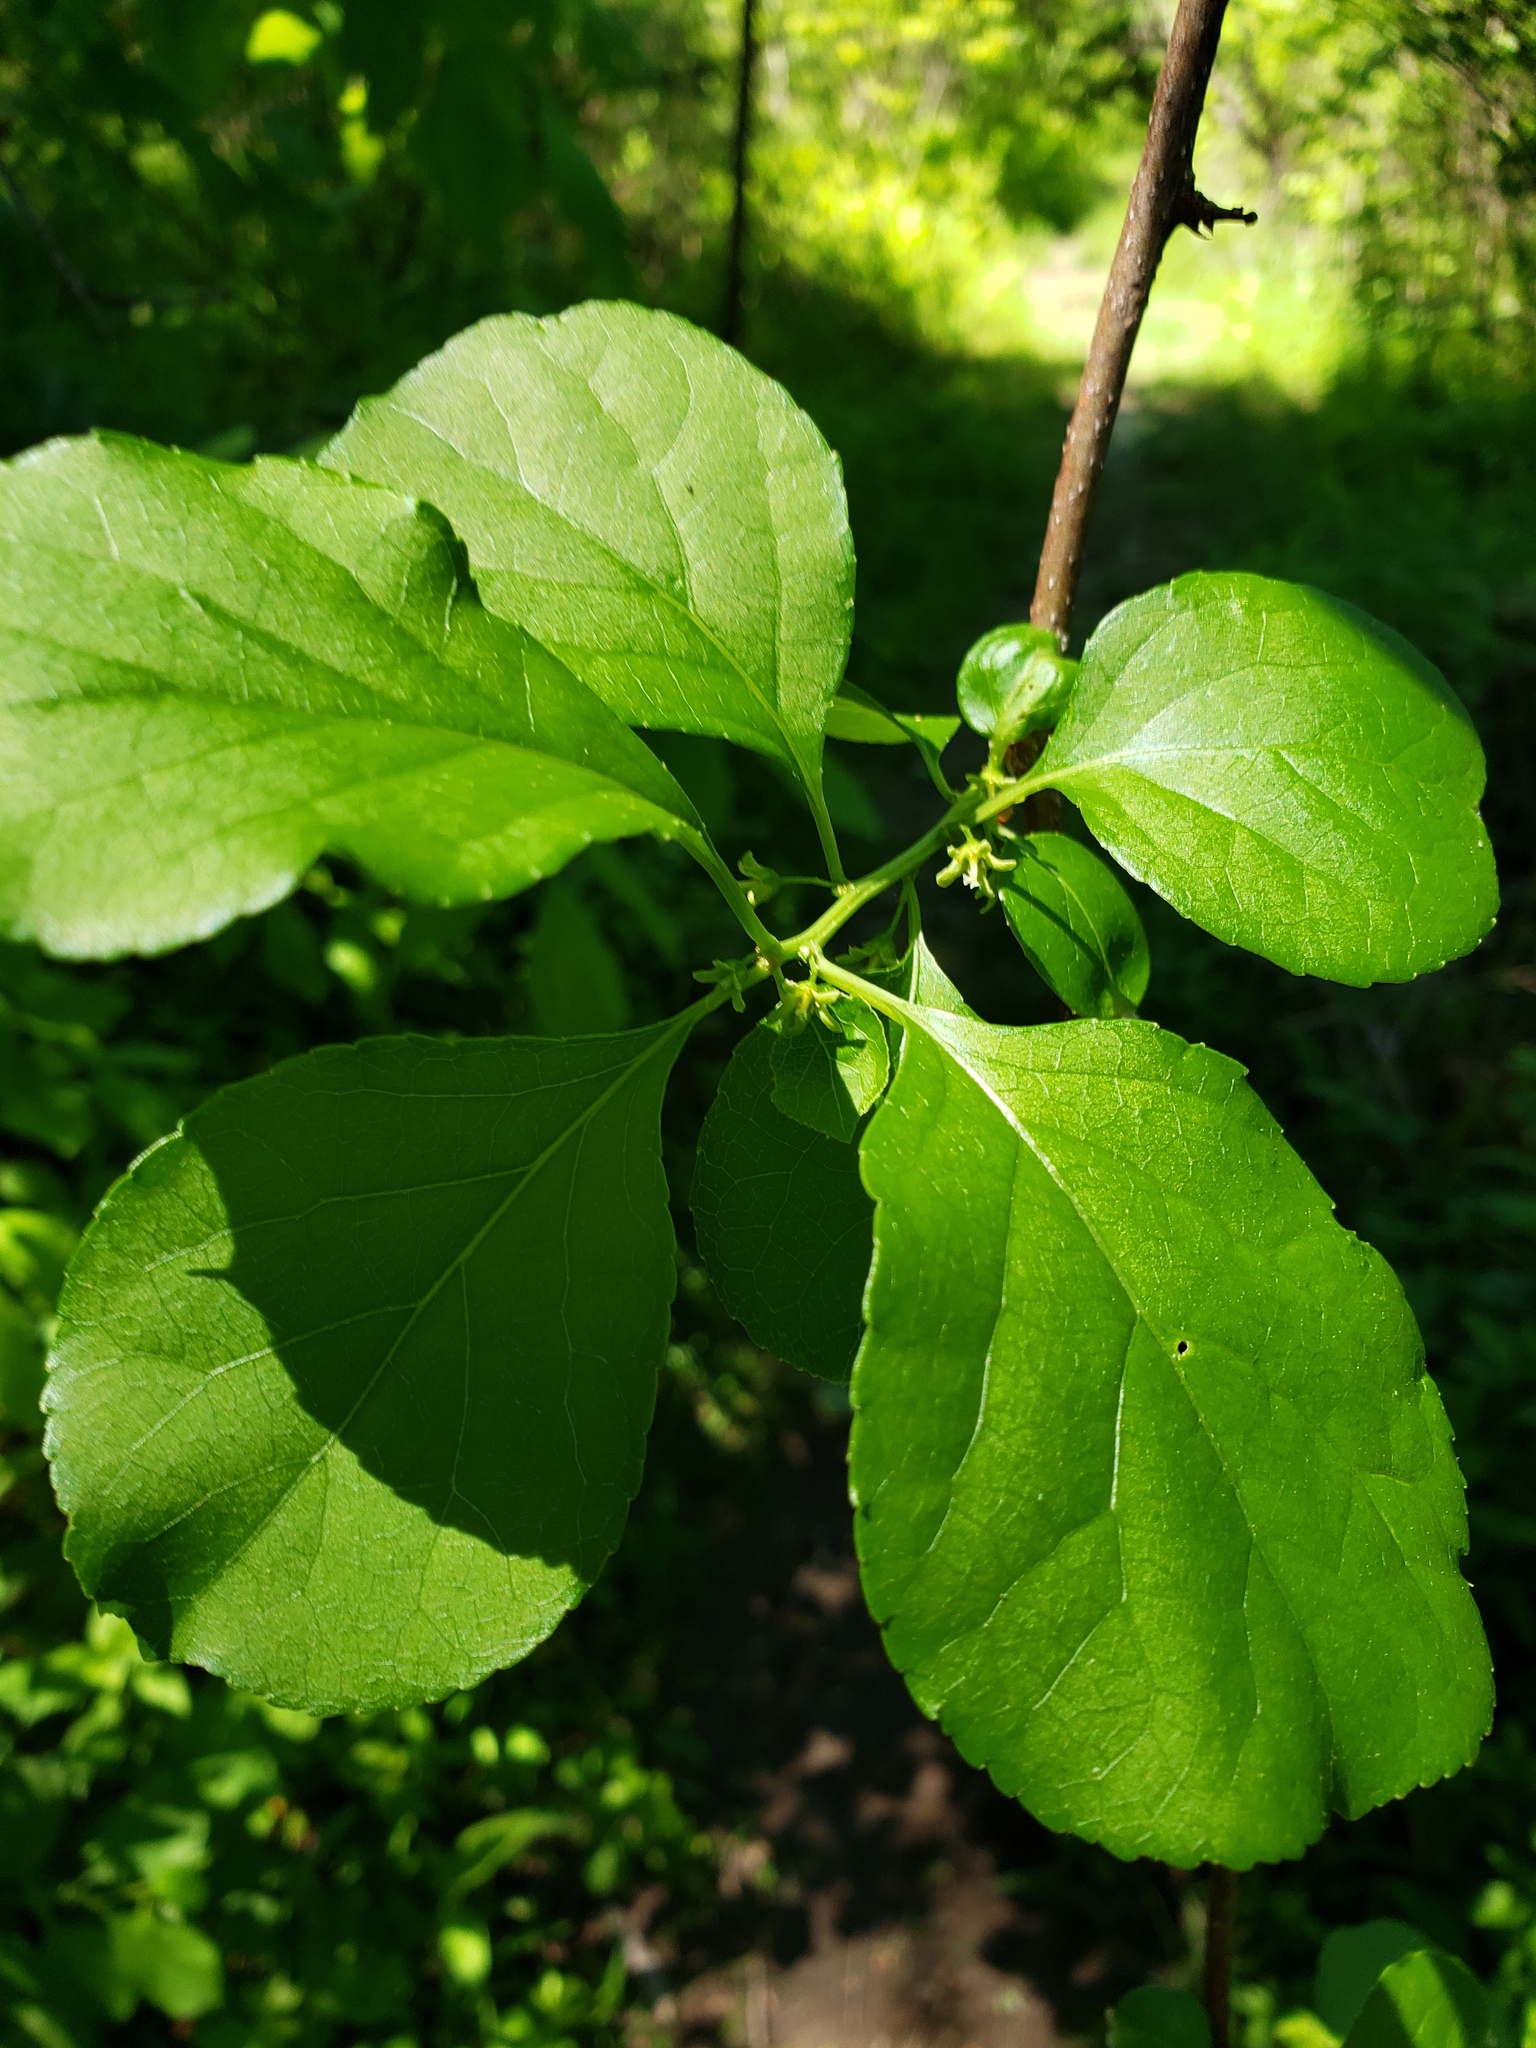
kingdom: Plantae
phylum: Tracheophyta
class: Magnoliopsida
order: Celastrales
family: Celastraceae
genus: Celastrus
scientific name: Celastrus orbiculatus
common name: Oriental bittersweet
